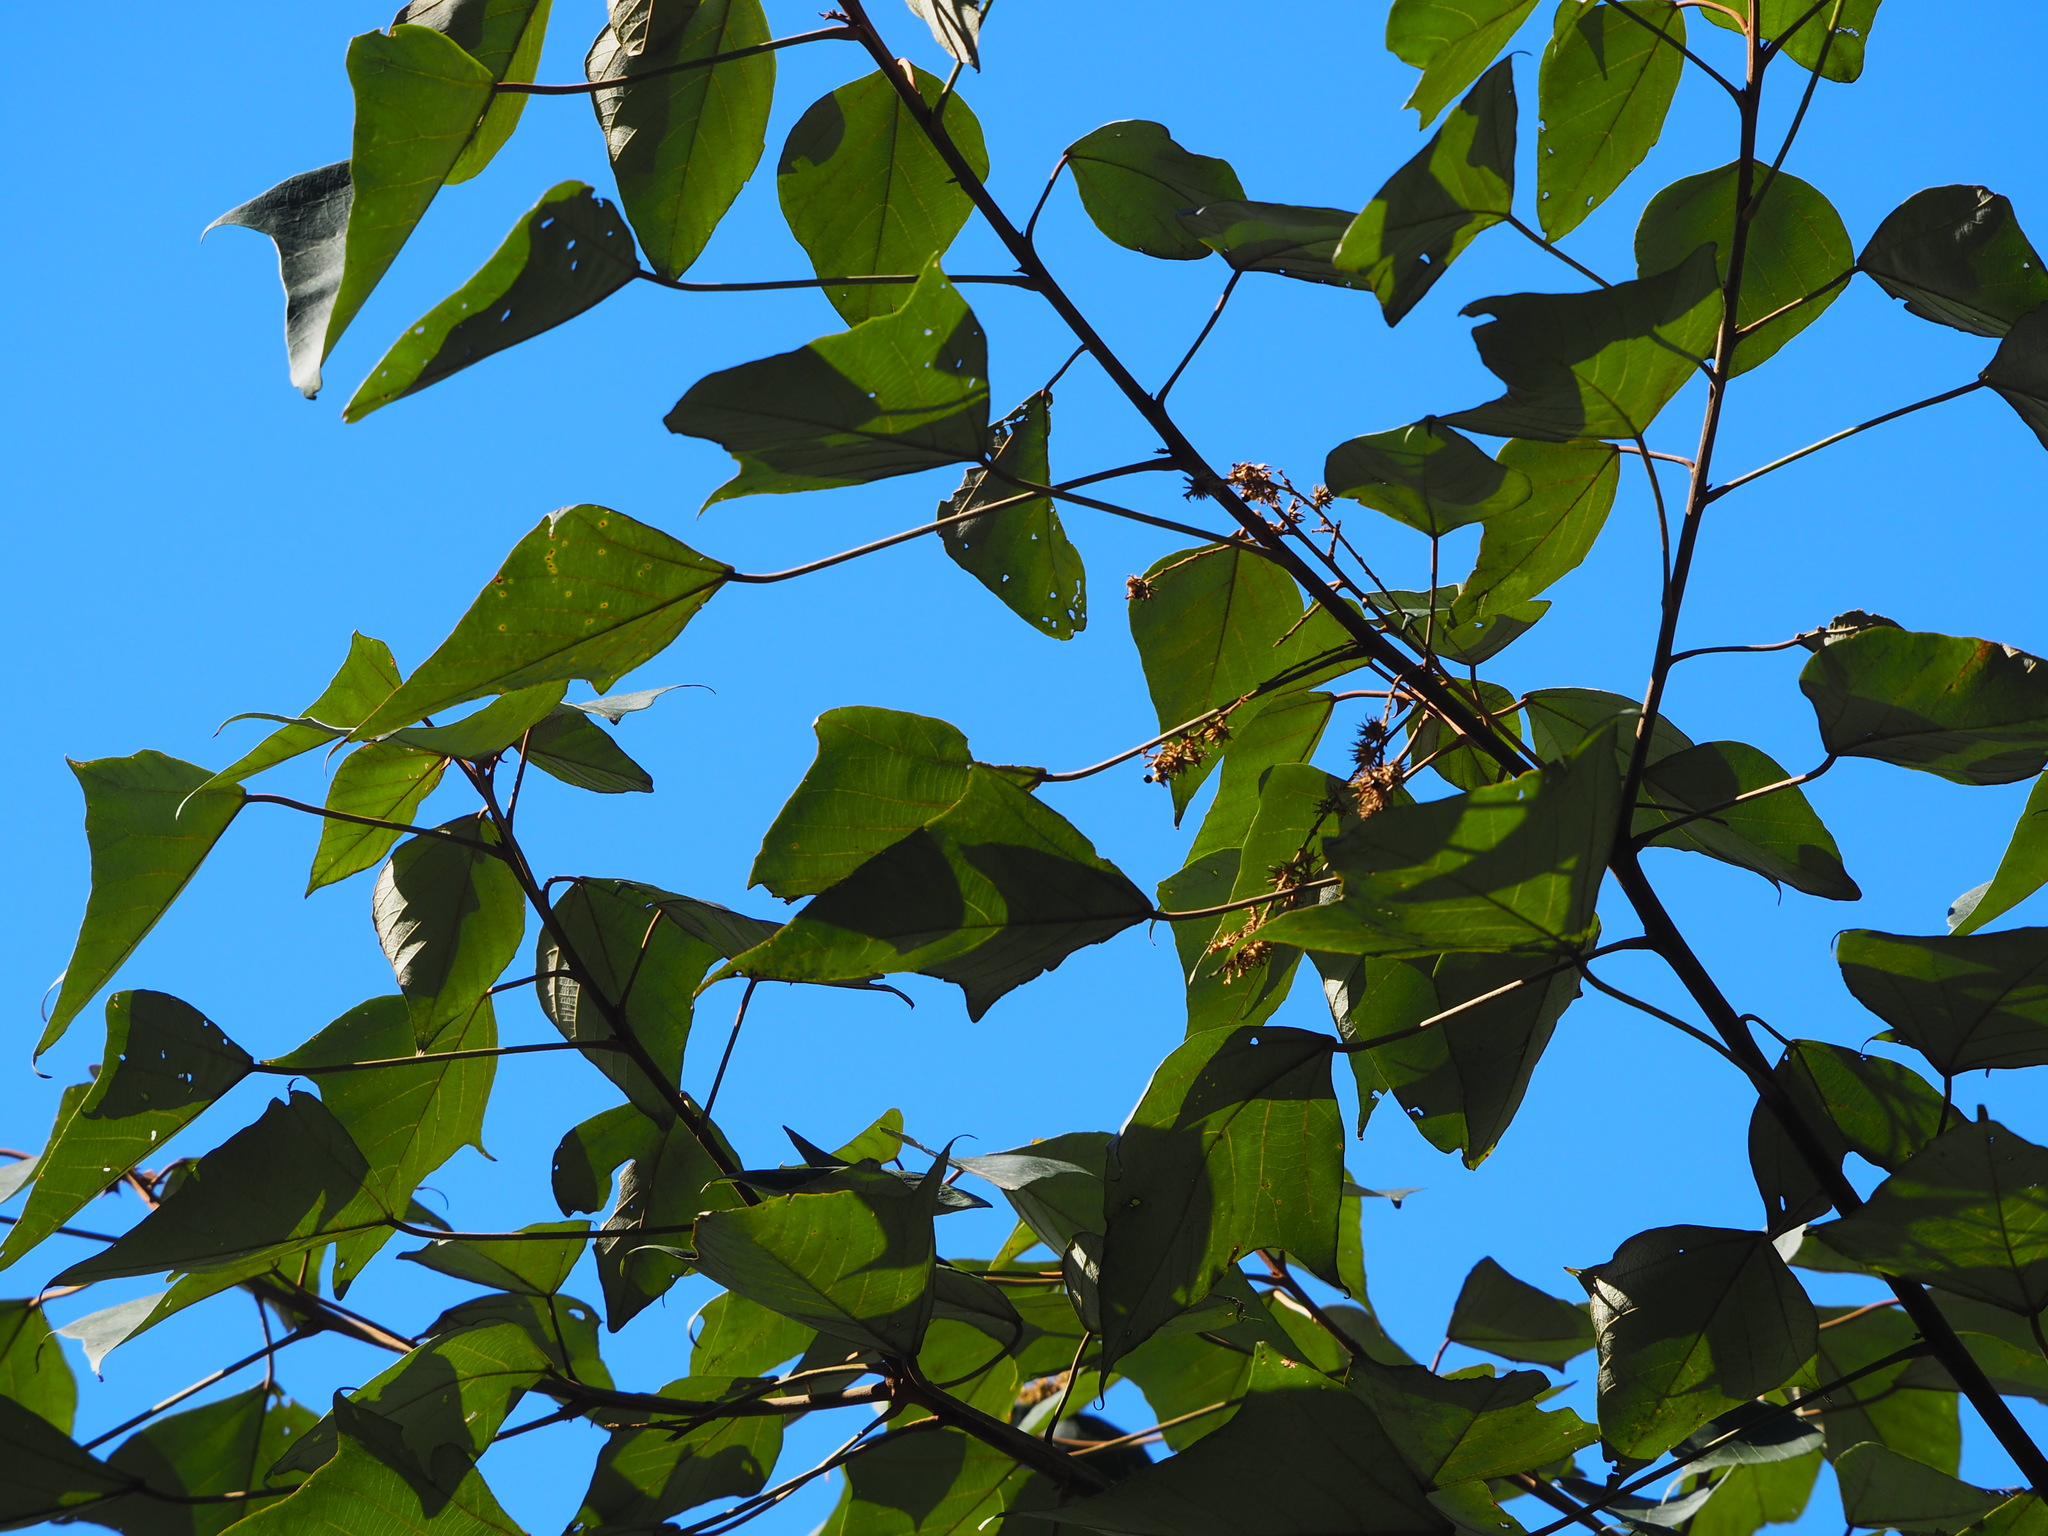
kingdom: Plantae
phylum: Tracheophyta
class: Magnoliopsida
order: Malpighiales
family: Euphorbiaceae
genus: Mallotus
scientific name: Mallotus paniculatus
